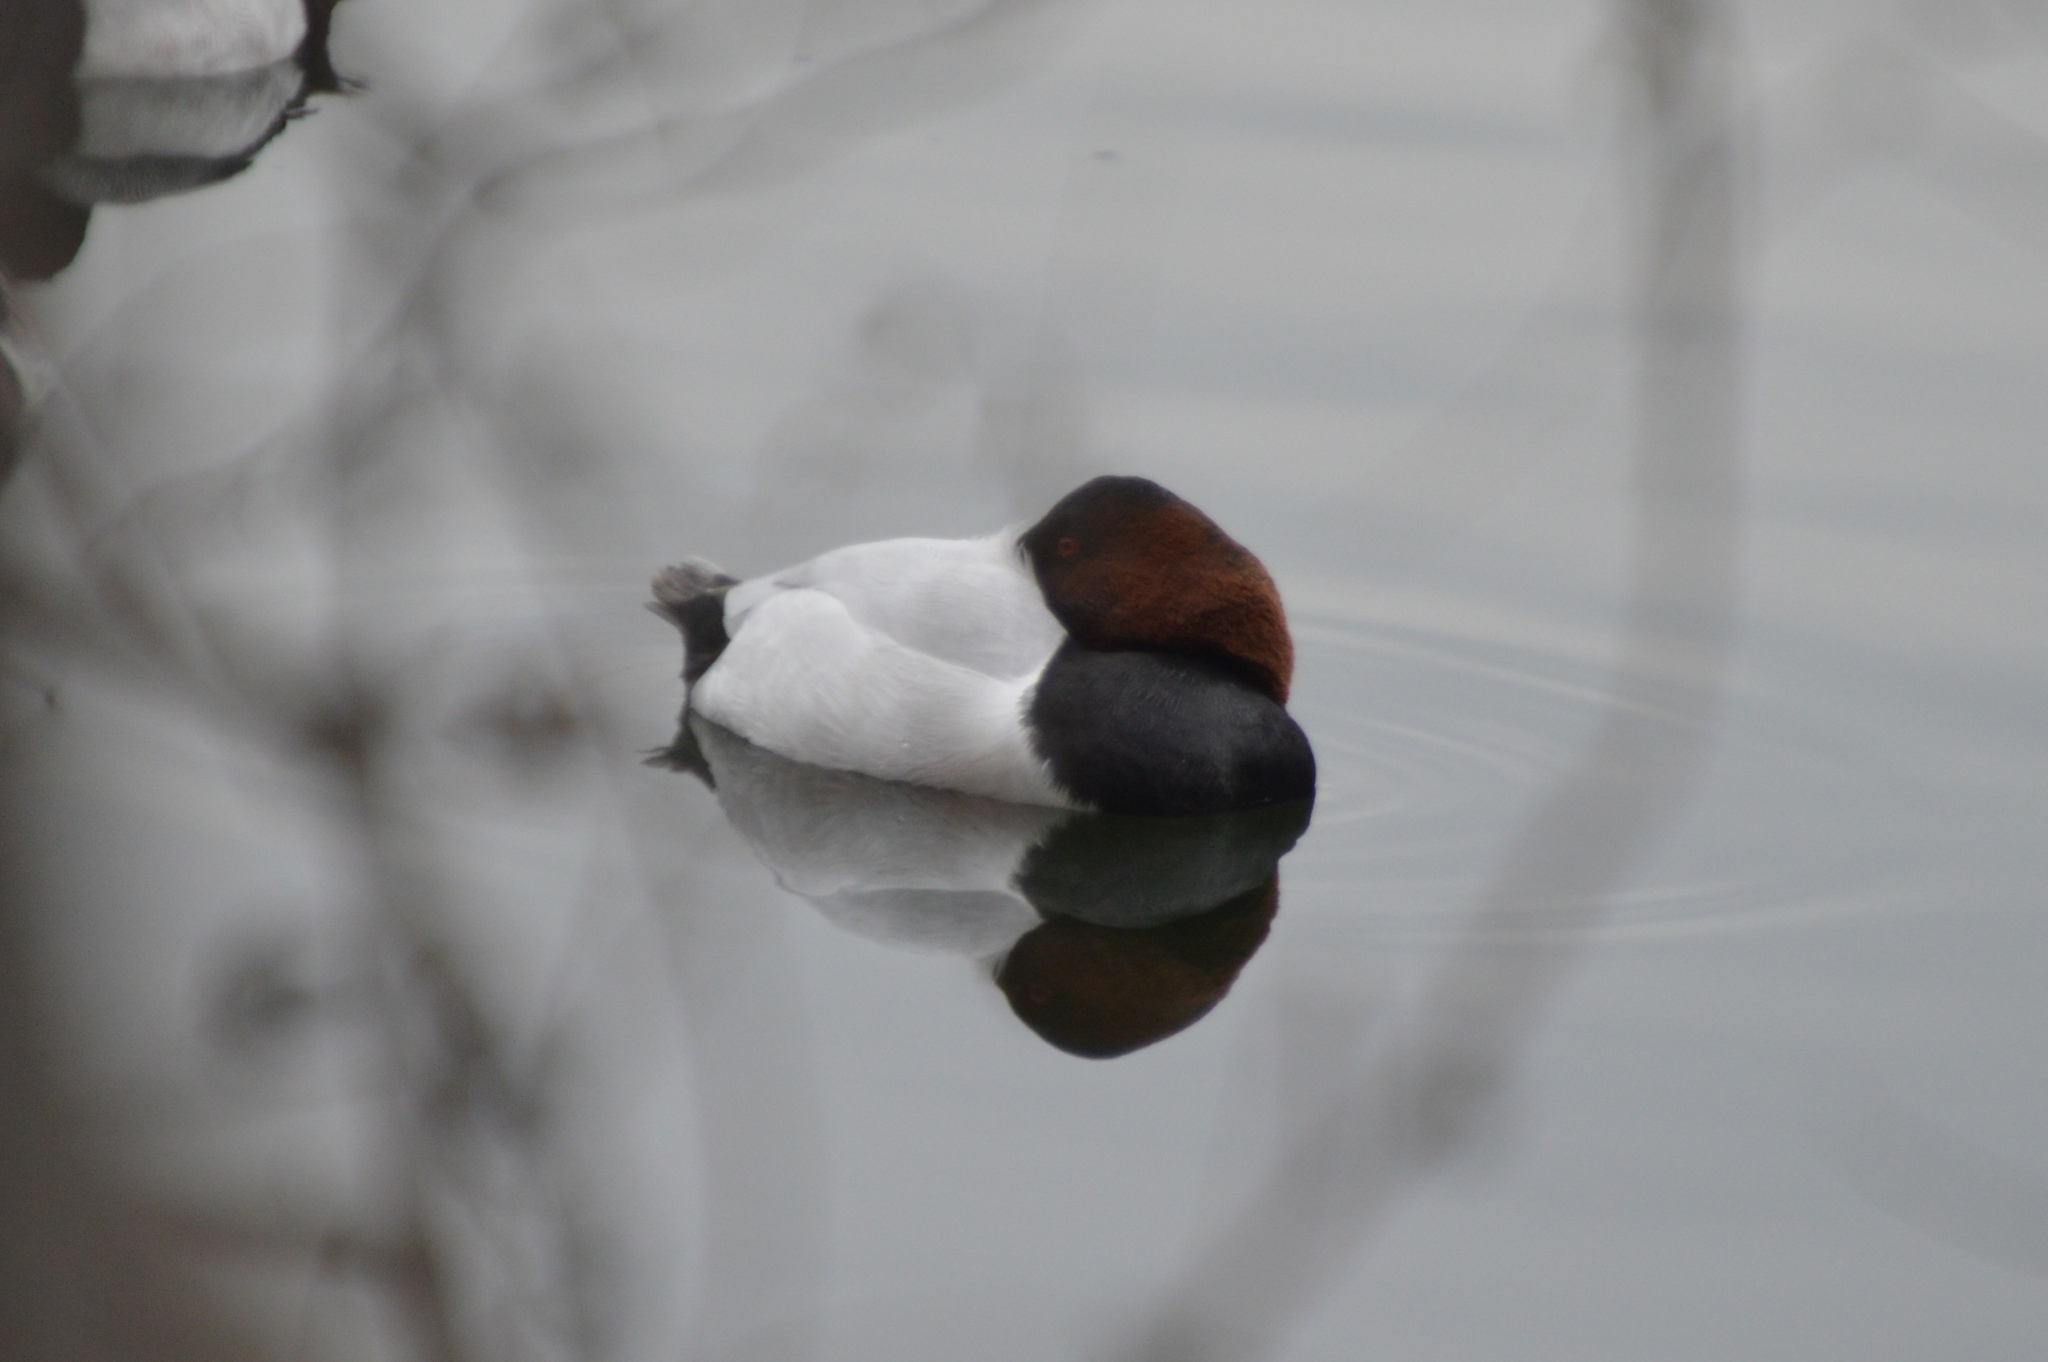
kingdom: Animalia
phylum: Chordata
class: Aves
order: Anseriformes
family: Anatidae
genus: Aythya
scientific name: Aythya valisineria
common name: Canvasback
